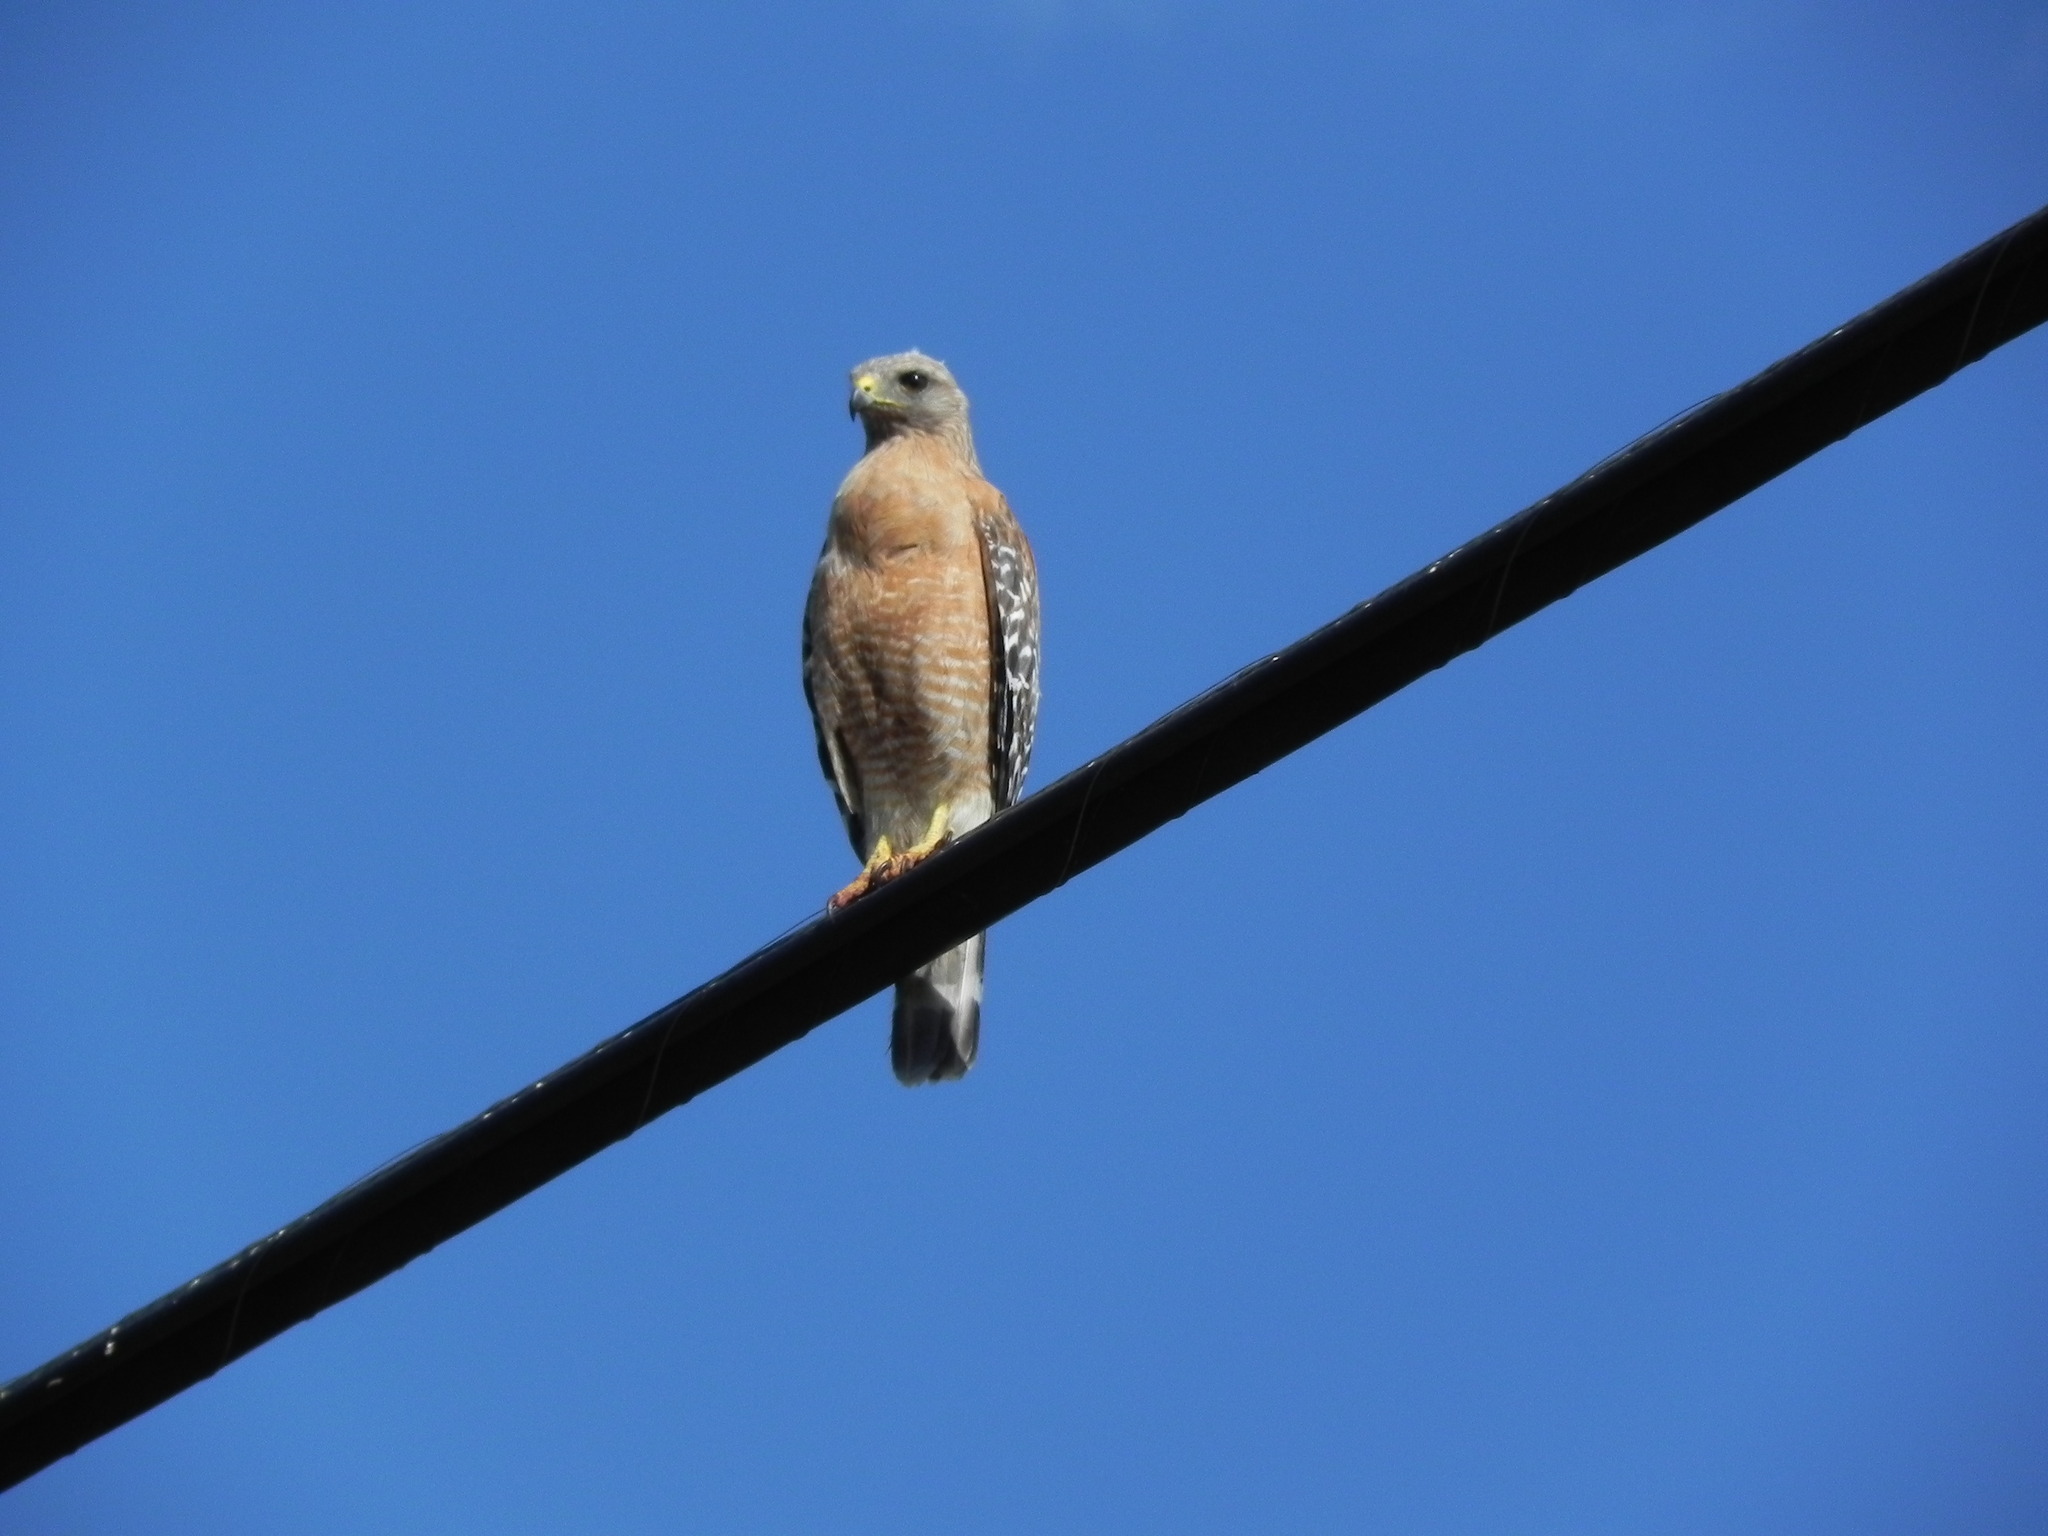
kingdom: Animalia
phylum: Chordata
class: Aves
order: Accipitriformes
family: Accipitridae
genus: Buteo
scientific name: Buteo lineatus
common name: Red-shouldered hawk
